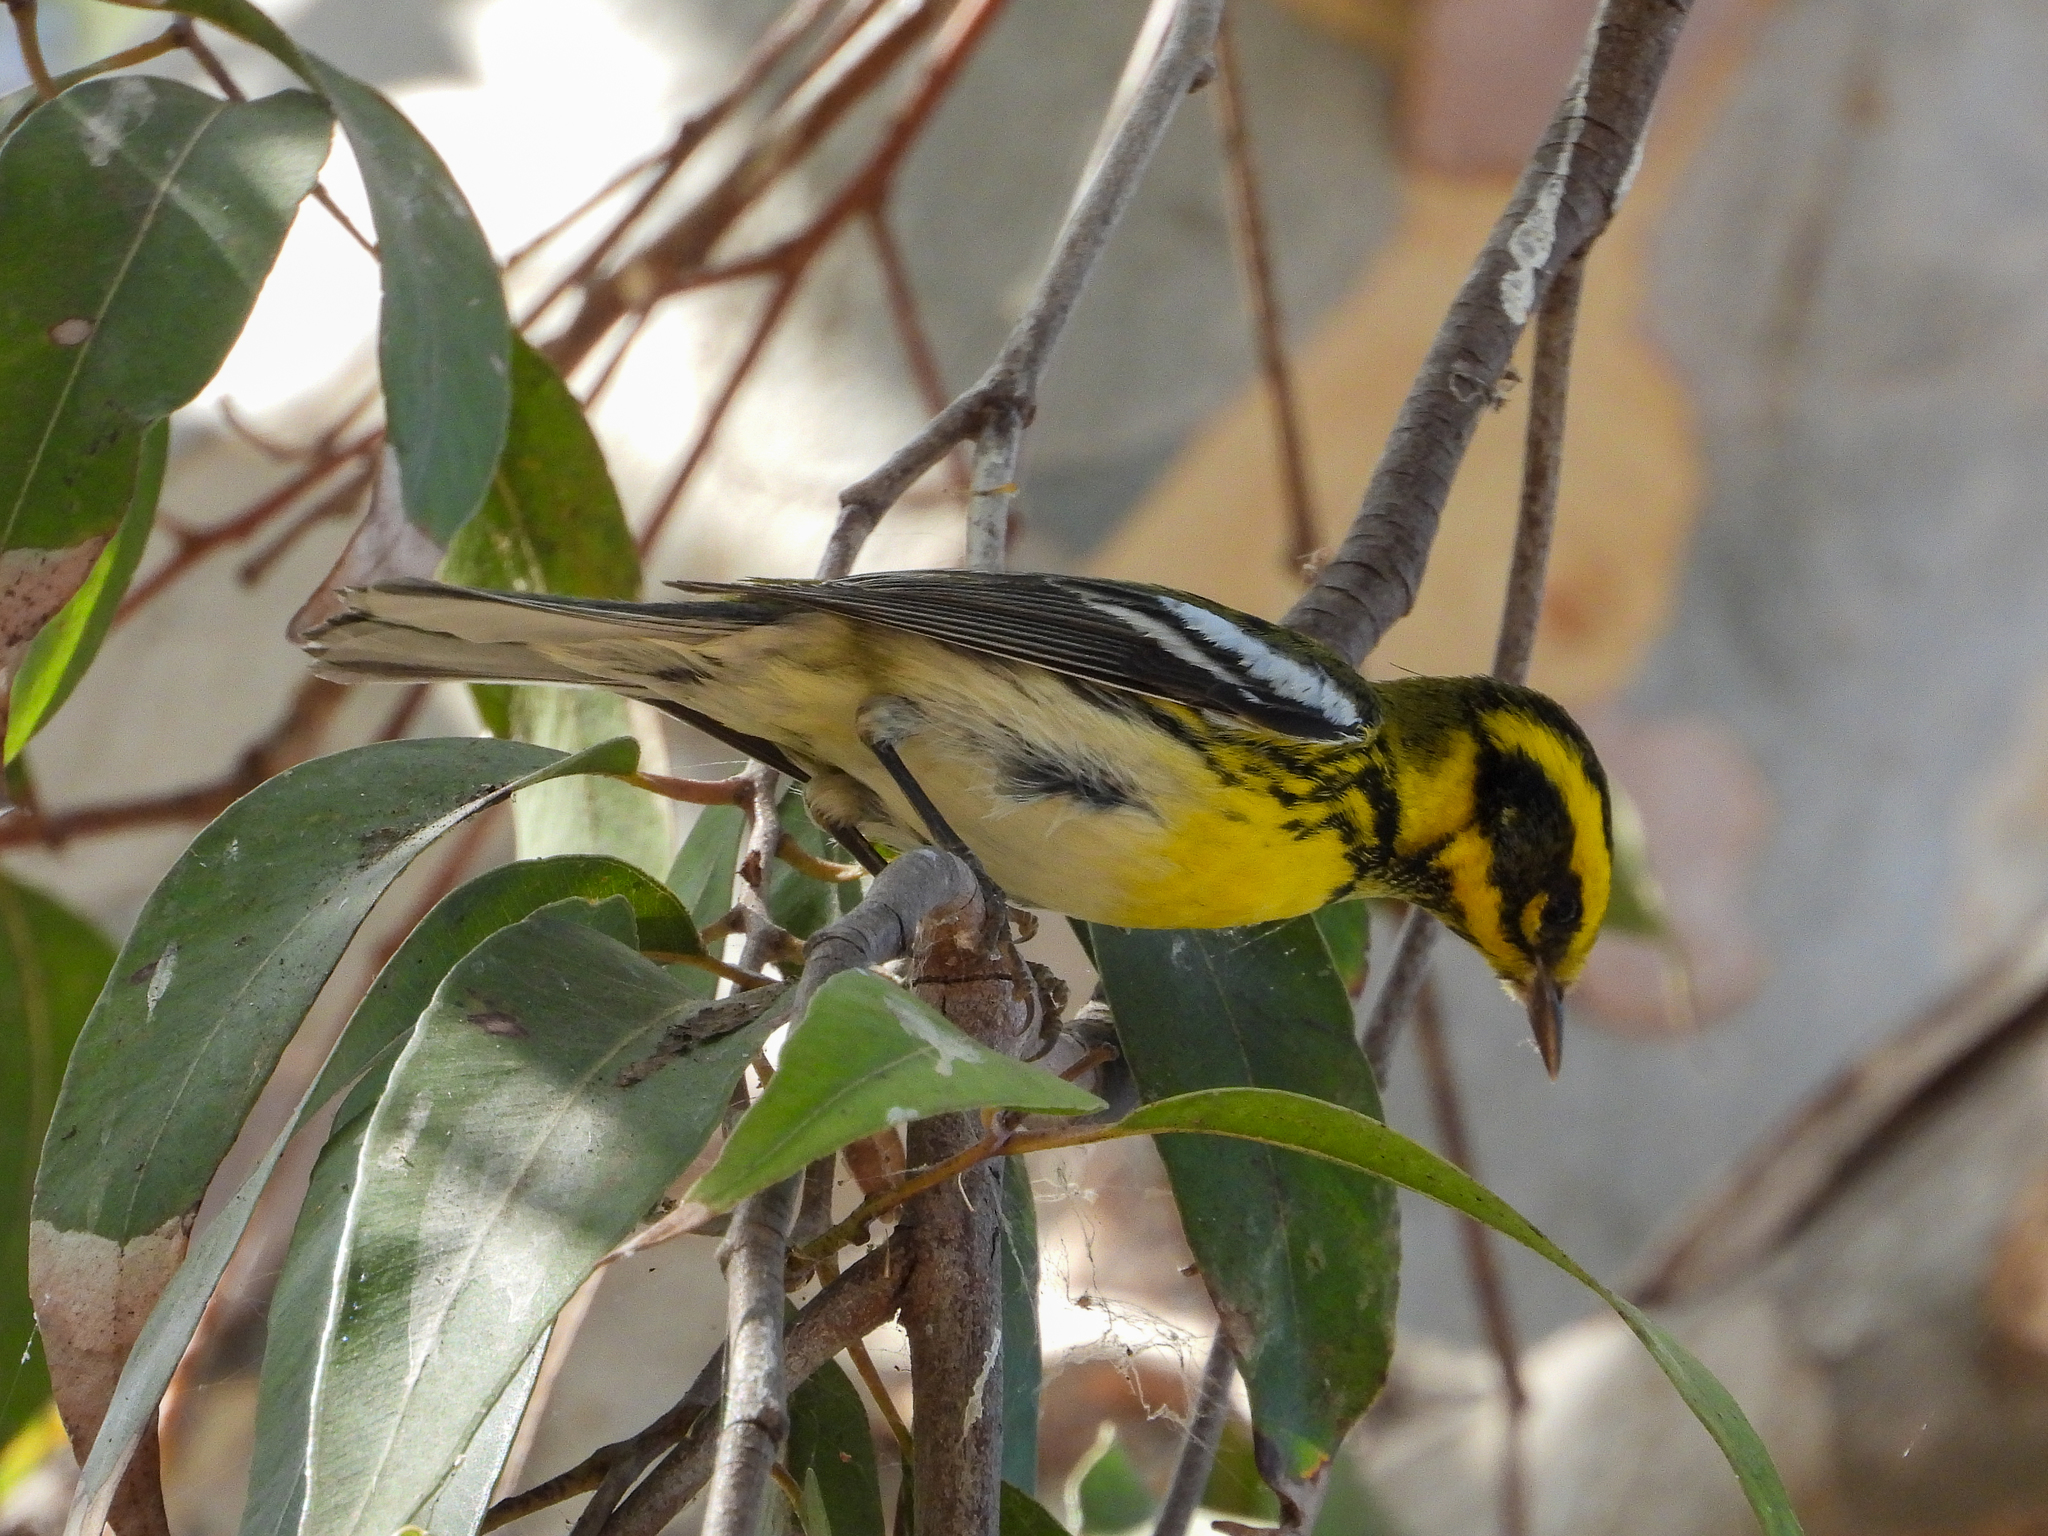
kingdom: Animalia
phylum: Chordata
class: Aves
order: Passeriformes
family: Parulidae
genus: Setophaga
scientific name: Setophaga townsendi
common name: Townsend's warbler
